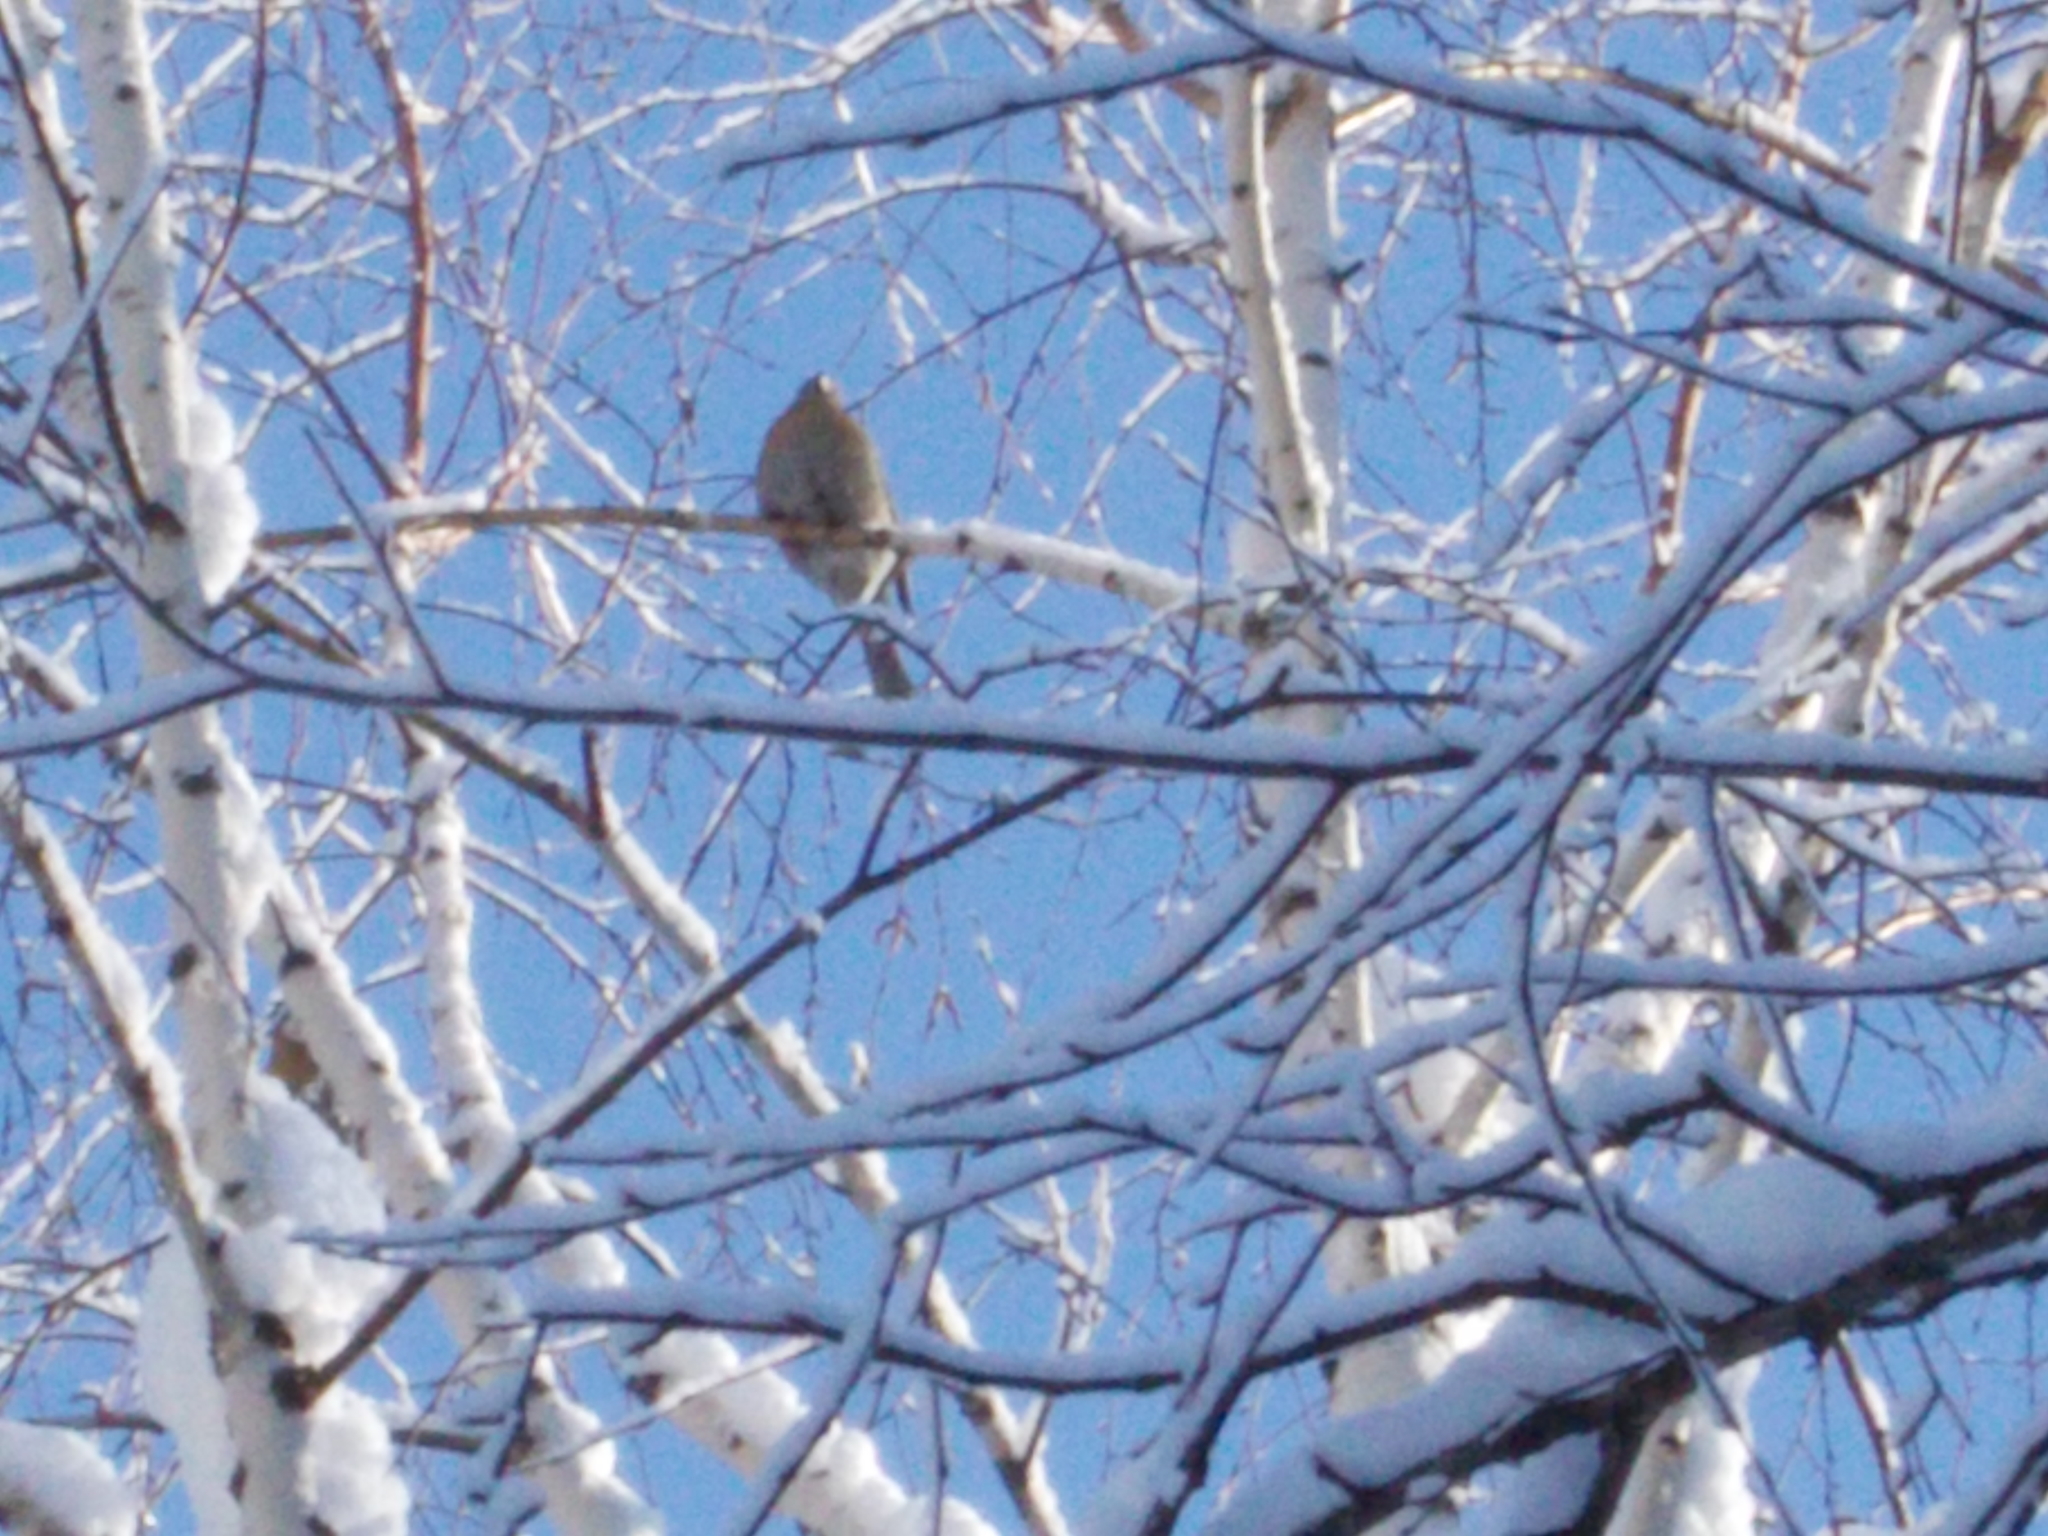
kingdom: Animalia
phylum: Chordata
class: Aves
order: Passeriformes
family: Fringillidae
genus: Pinicola
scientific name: Pinicola enucleator
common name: Pine grosbeak
